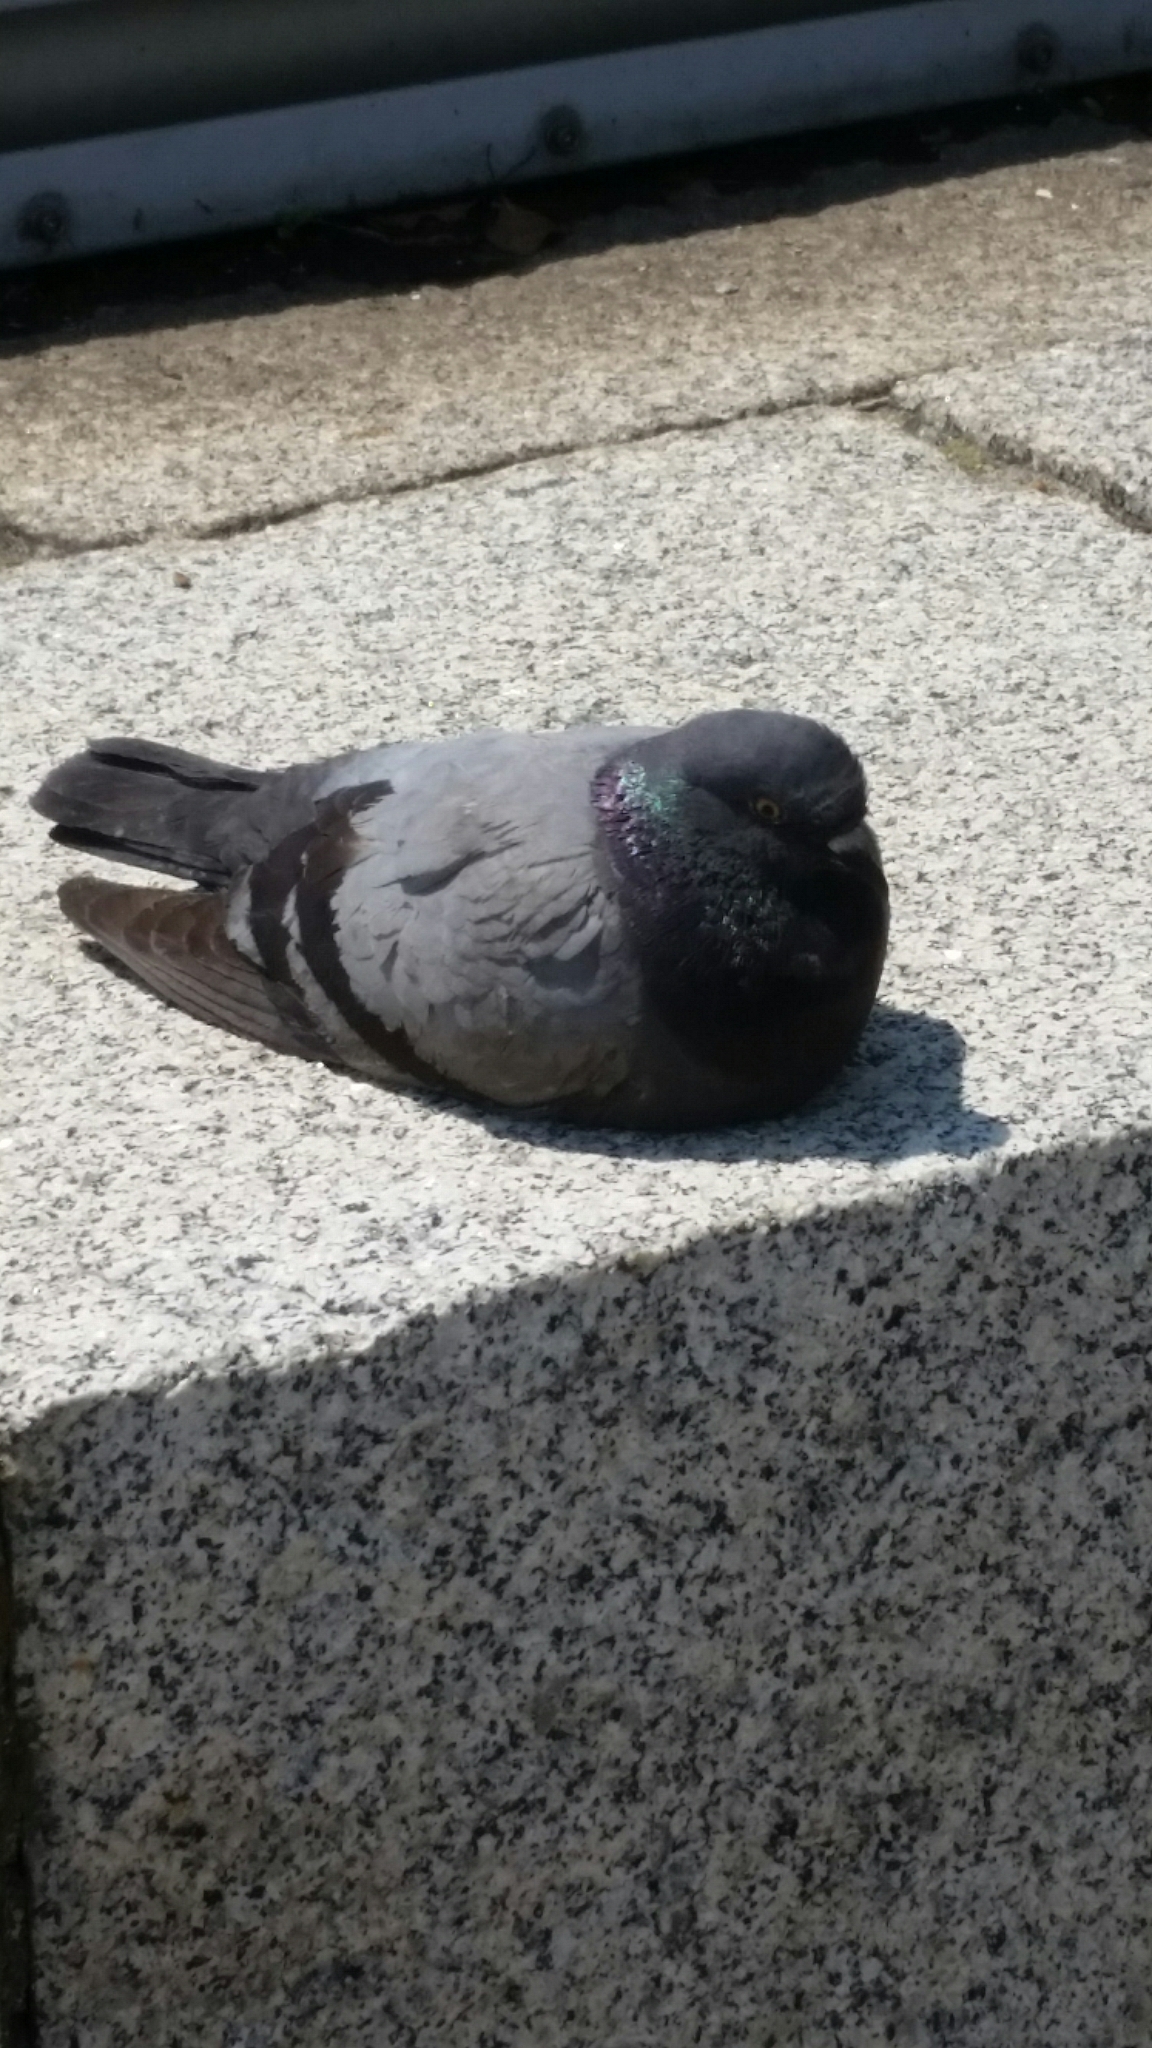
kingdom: Animalia
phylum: Chordata
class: Aves
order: Columbiformes
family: Columbidae
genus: Columba
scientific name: Columba livia
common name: Rock pigeon
